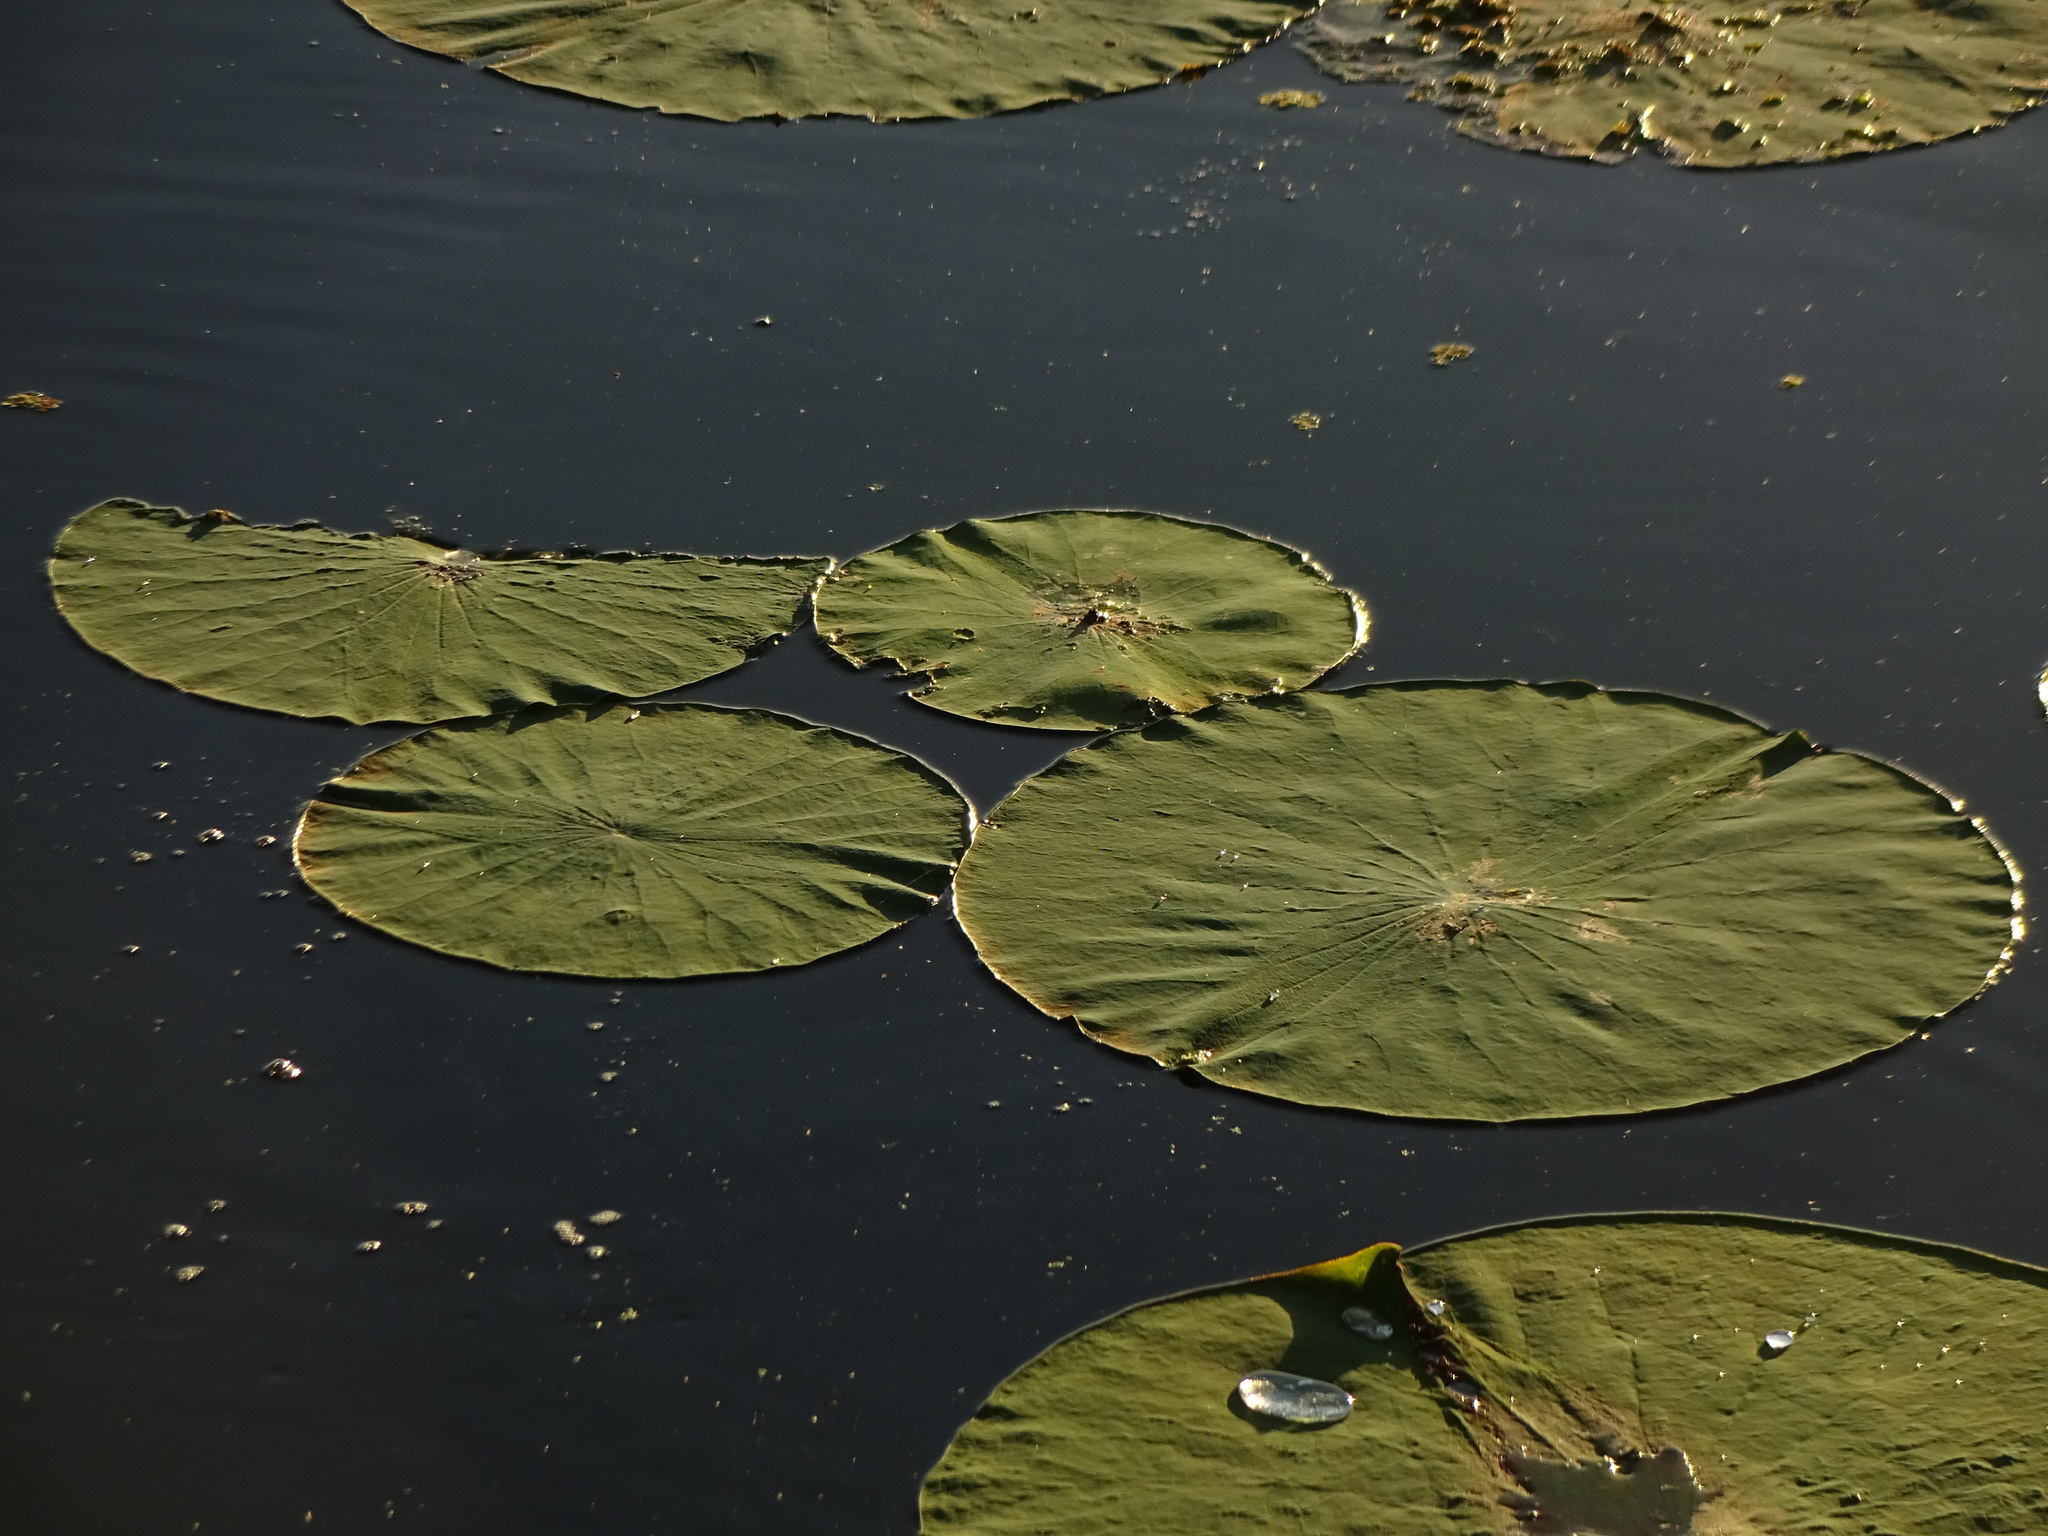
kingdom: Plantae
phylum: Tracheophyta
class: Magnoliopsida
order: Proteales
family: Nelumbonaceae
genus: Nelumbo
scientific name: Nelumbo lutea
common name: American lotus
